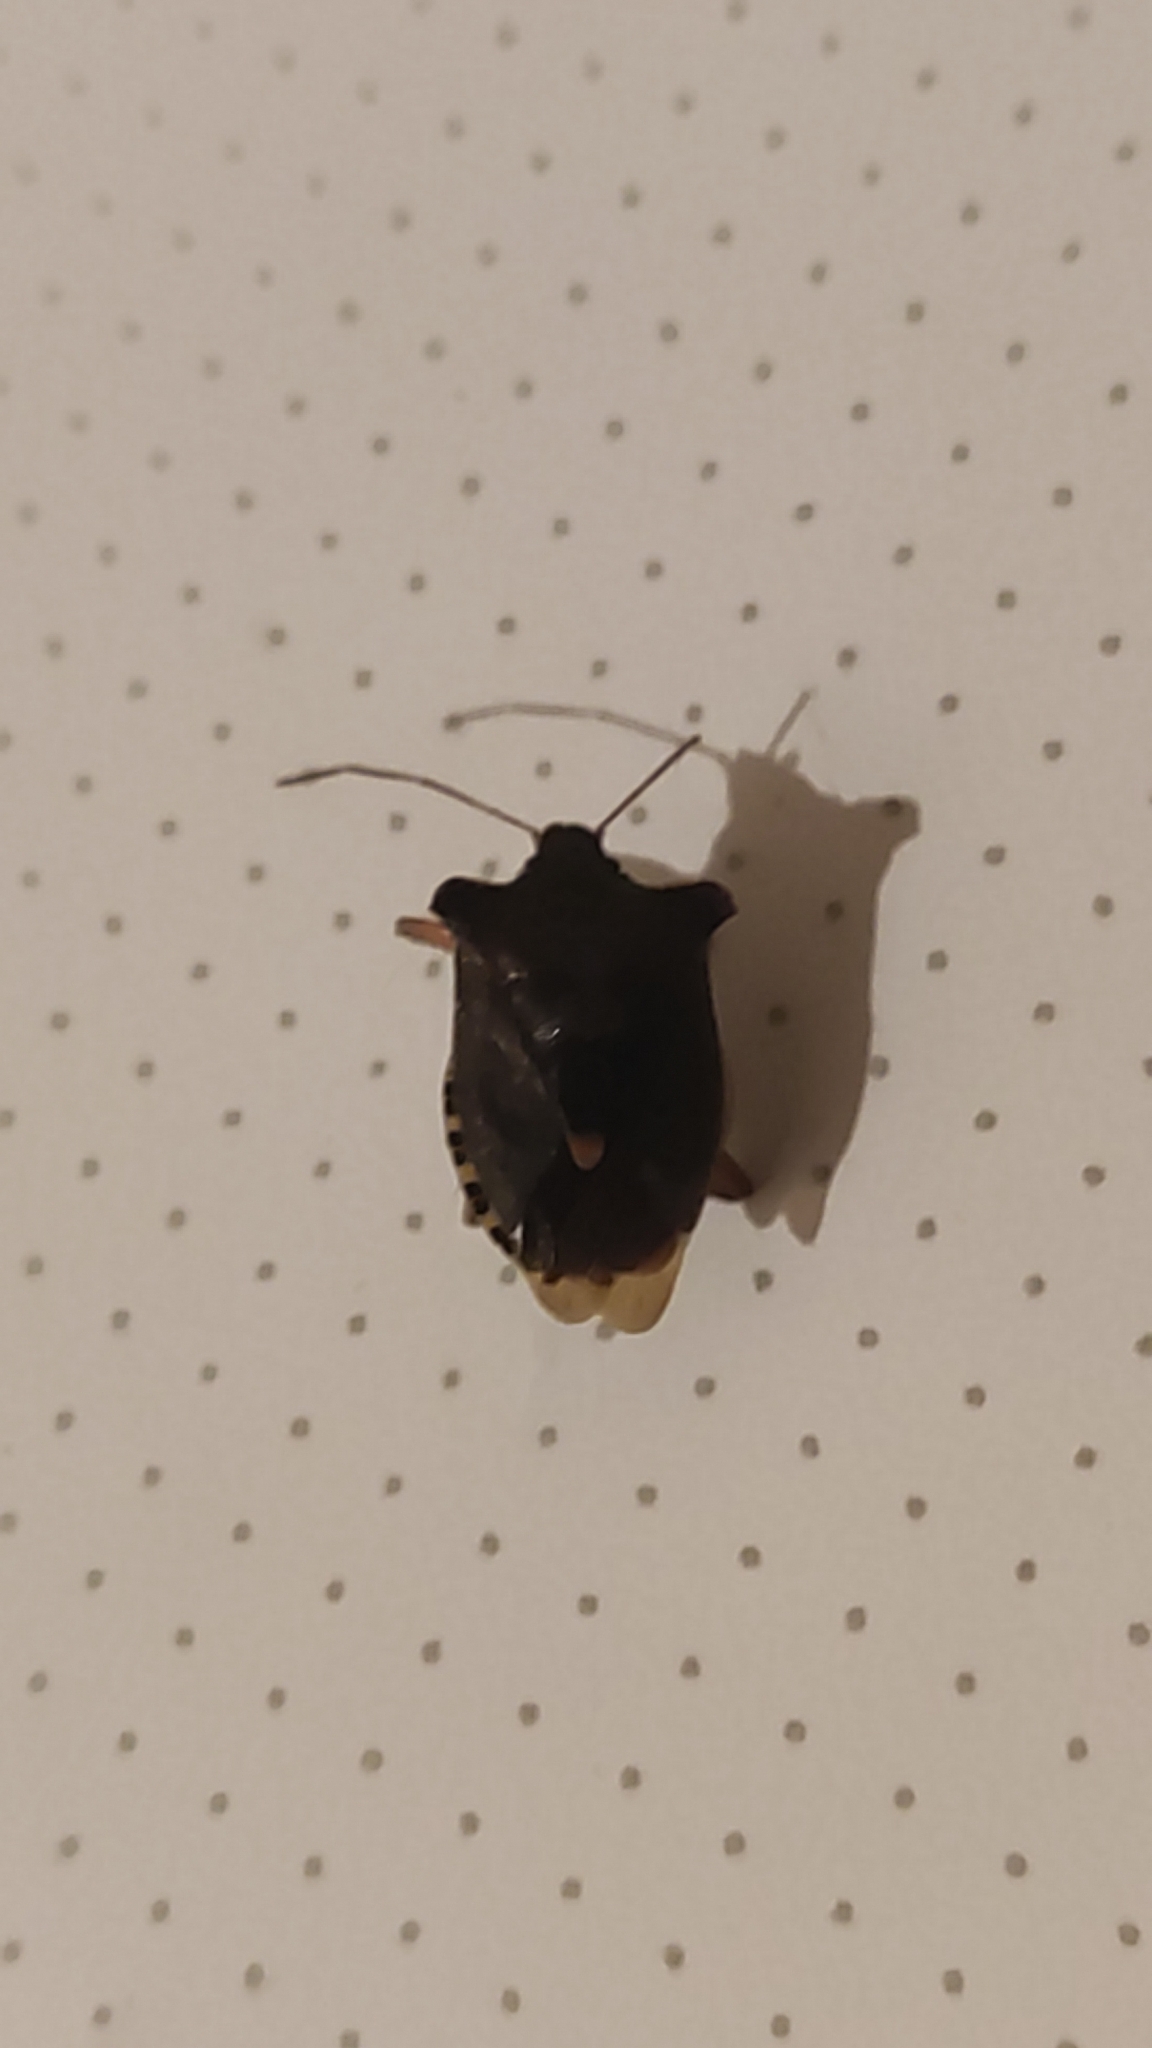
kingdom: Animalia
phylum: Arthropoda
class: Insecta
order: Hemiptera
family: Pentatomidae
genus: Pentatoma
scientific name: Pentatoma rufipes
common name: Forest bug
